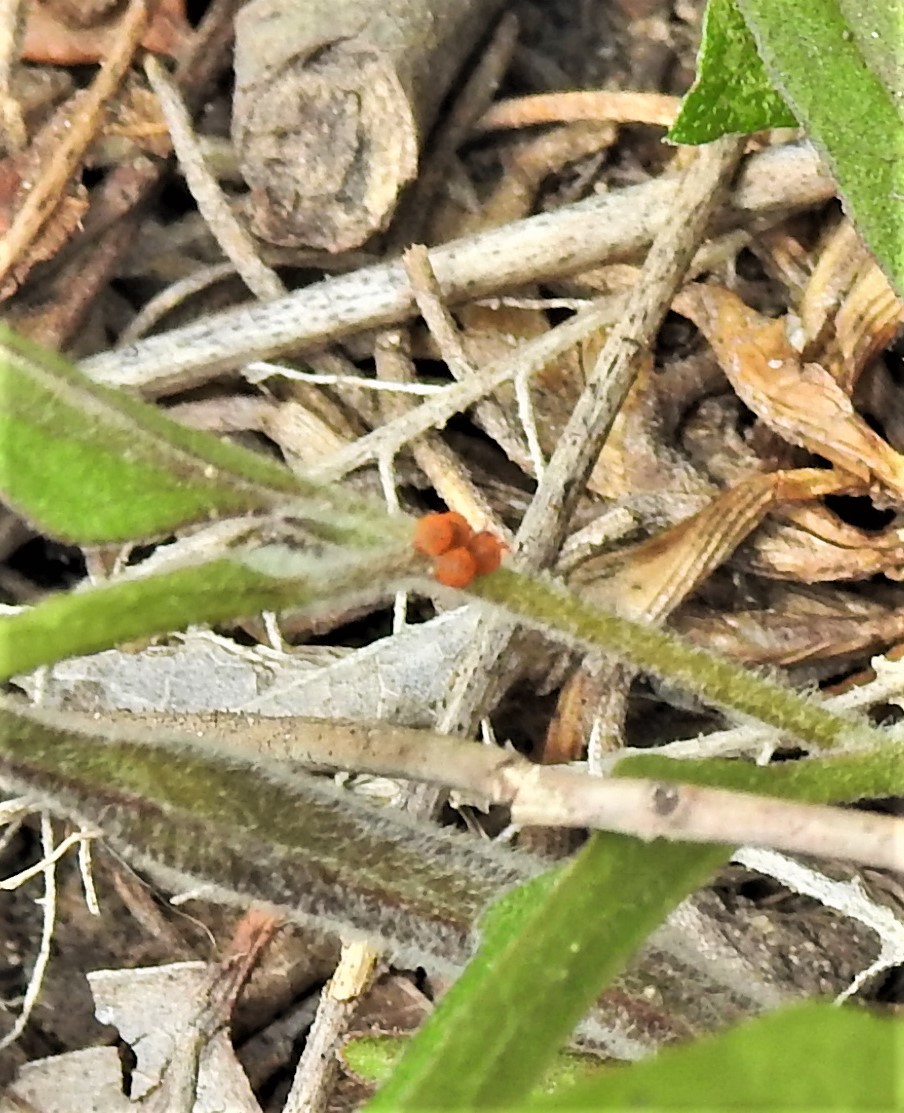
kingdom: Animalia
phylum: Arthropoda
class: Insecta
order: Lepidoptera
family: Papilionidae
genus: Battus
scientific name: Battus philenor
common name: Pipevine swallowtail
